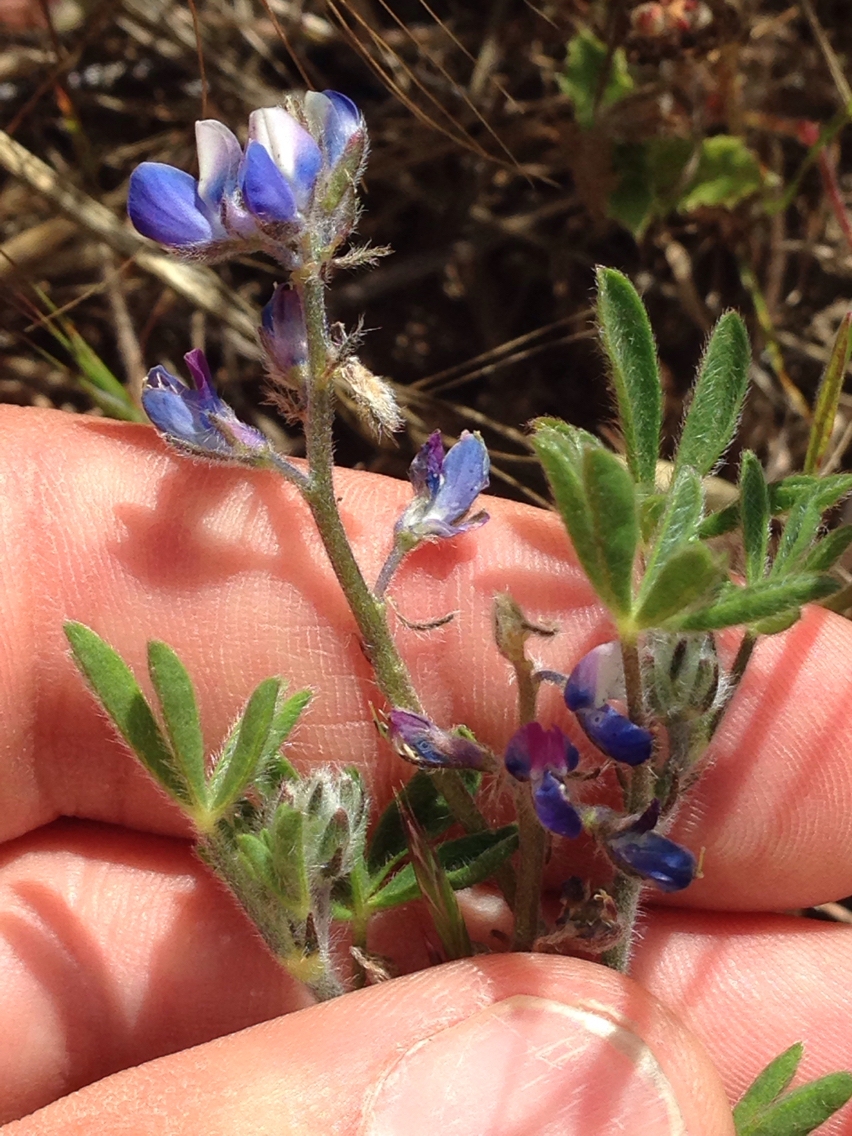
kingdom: Plantae
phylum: Tracheophyta
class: Magnoliopsida
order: Fabales
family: Fabaceae
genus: Lupinus
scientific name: Lupinus bicolor
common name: Miniature lupine
